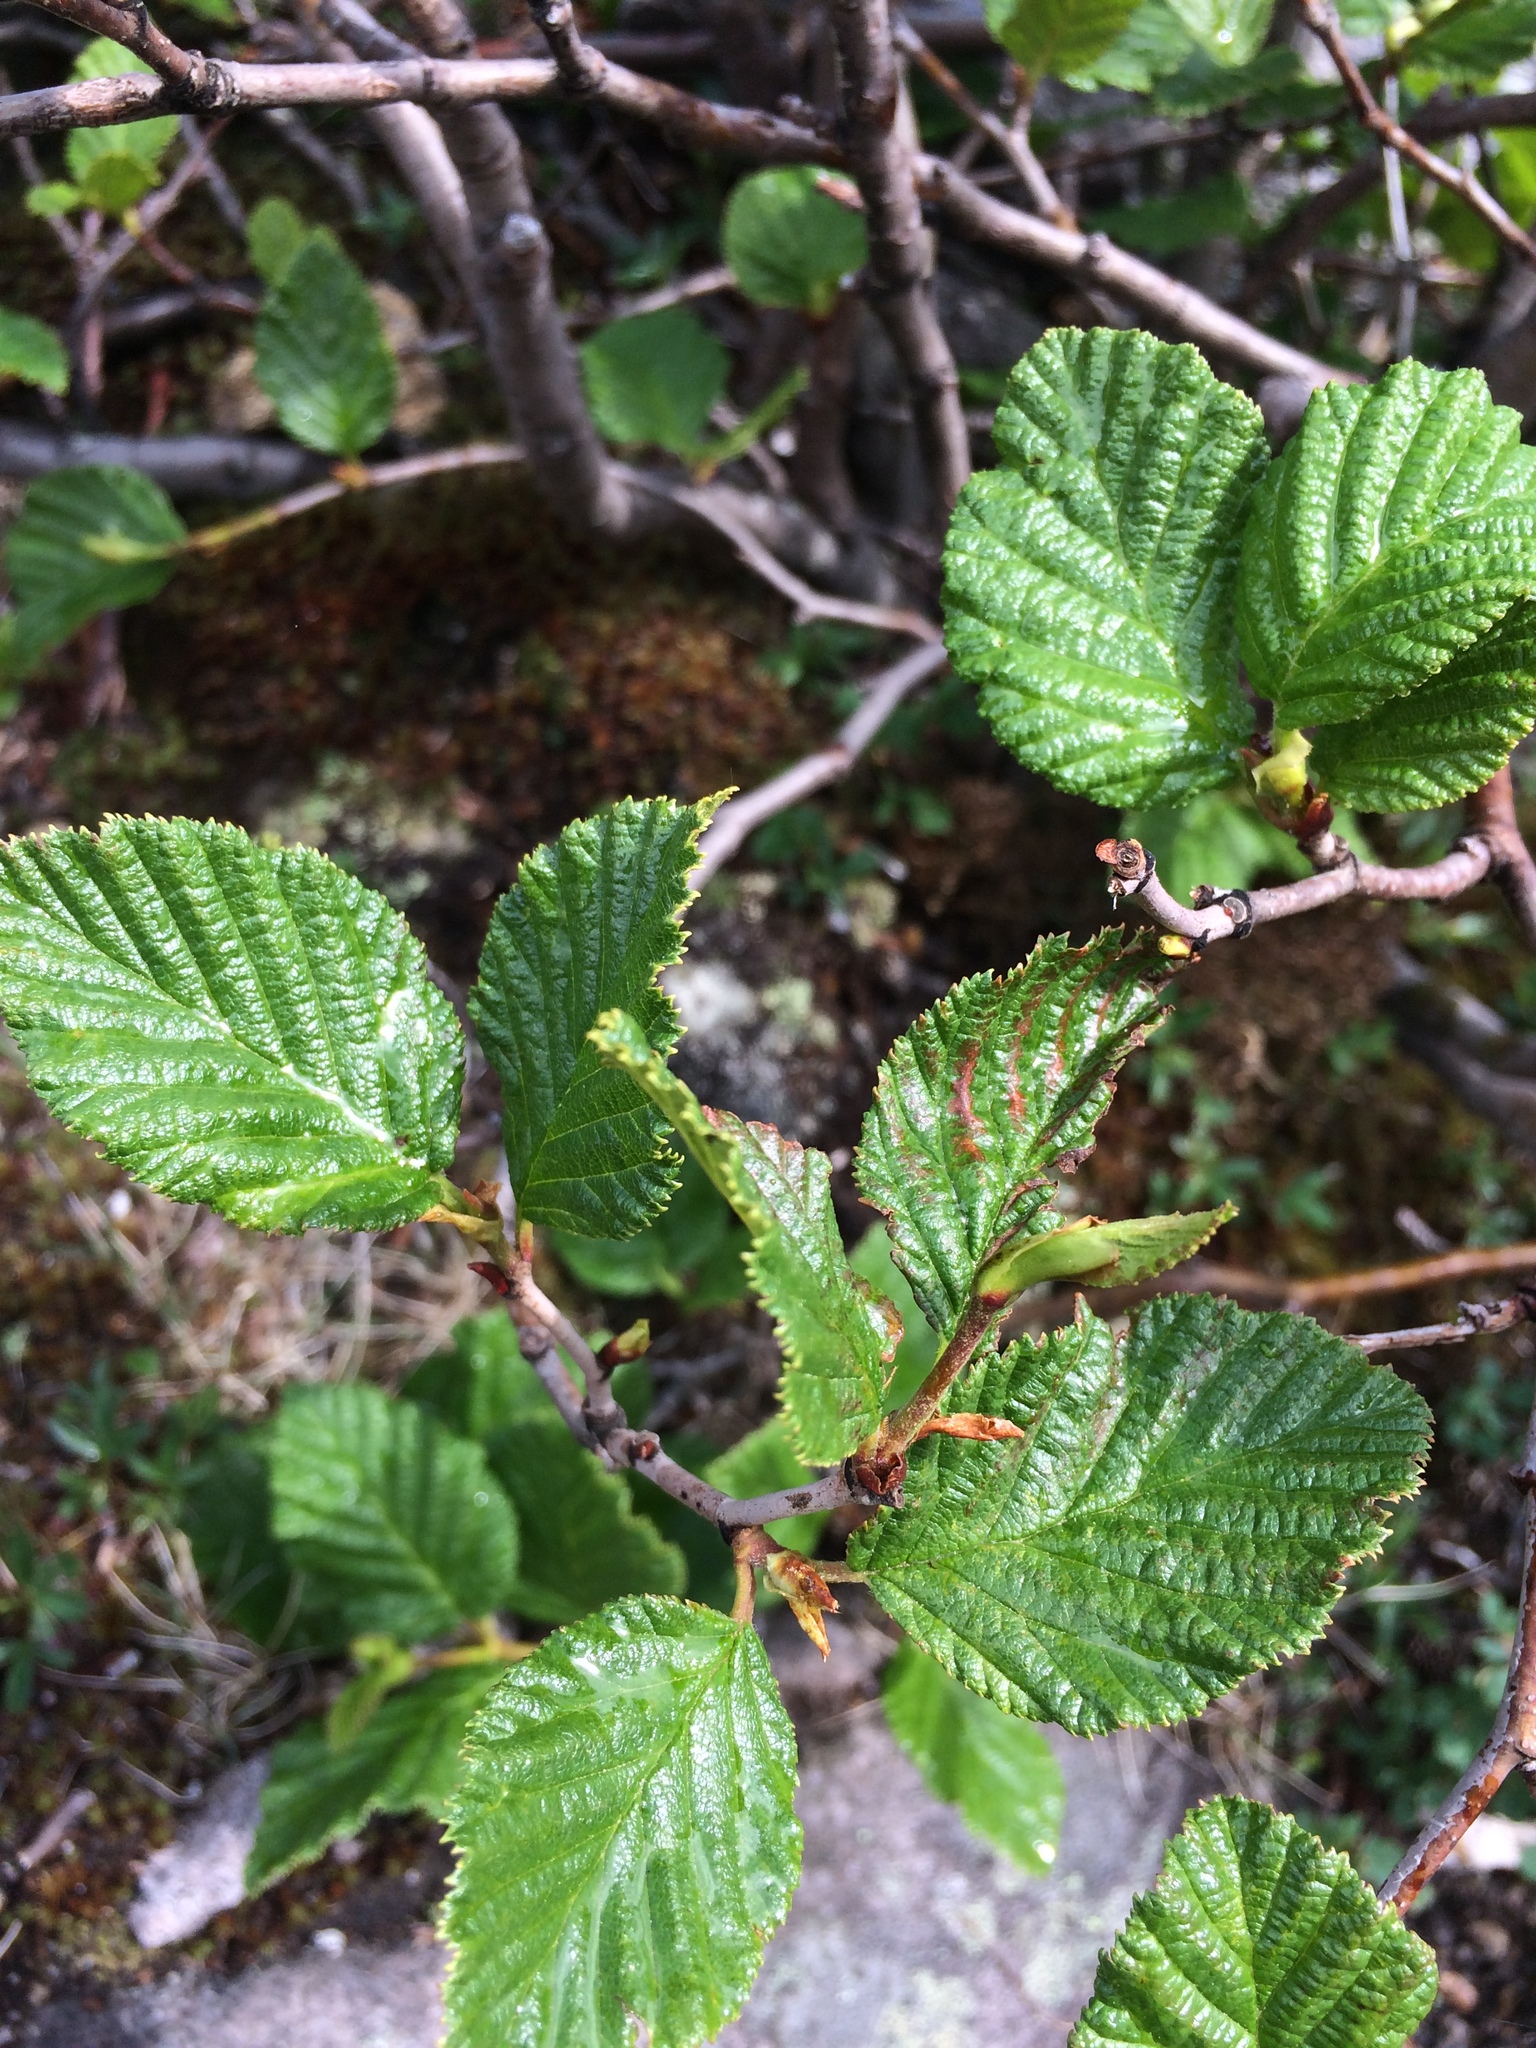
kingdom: Plantae
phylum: Tracheophyta
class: Magnoliopsida
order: Fagales
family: Betulaceae
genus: Alnus
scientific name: Alnus alnobetula
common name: Green alder
